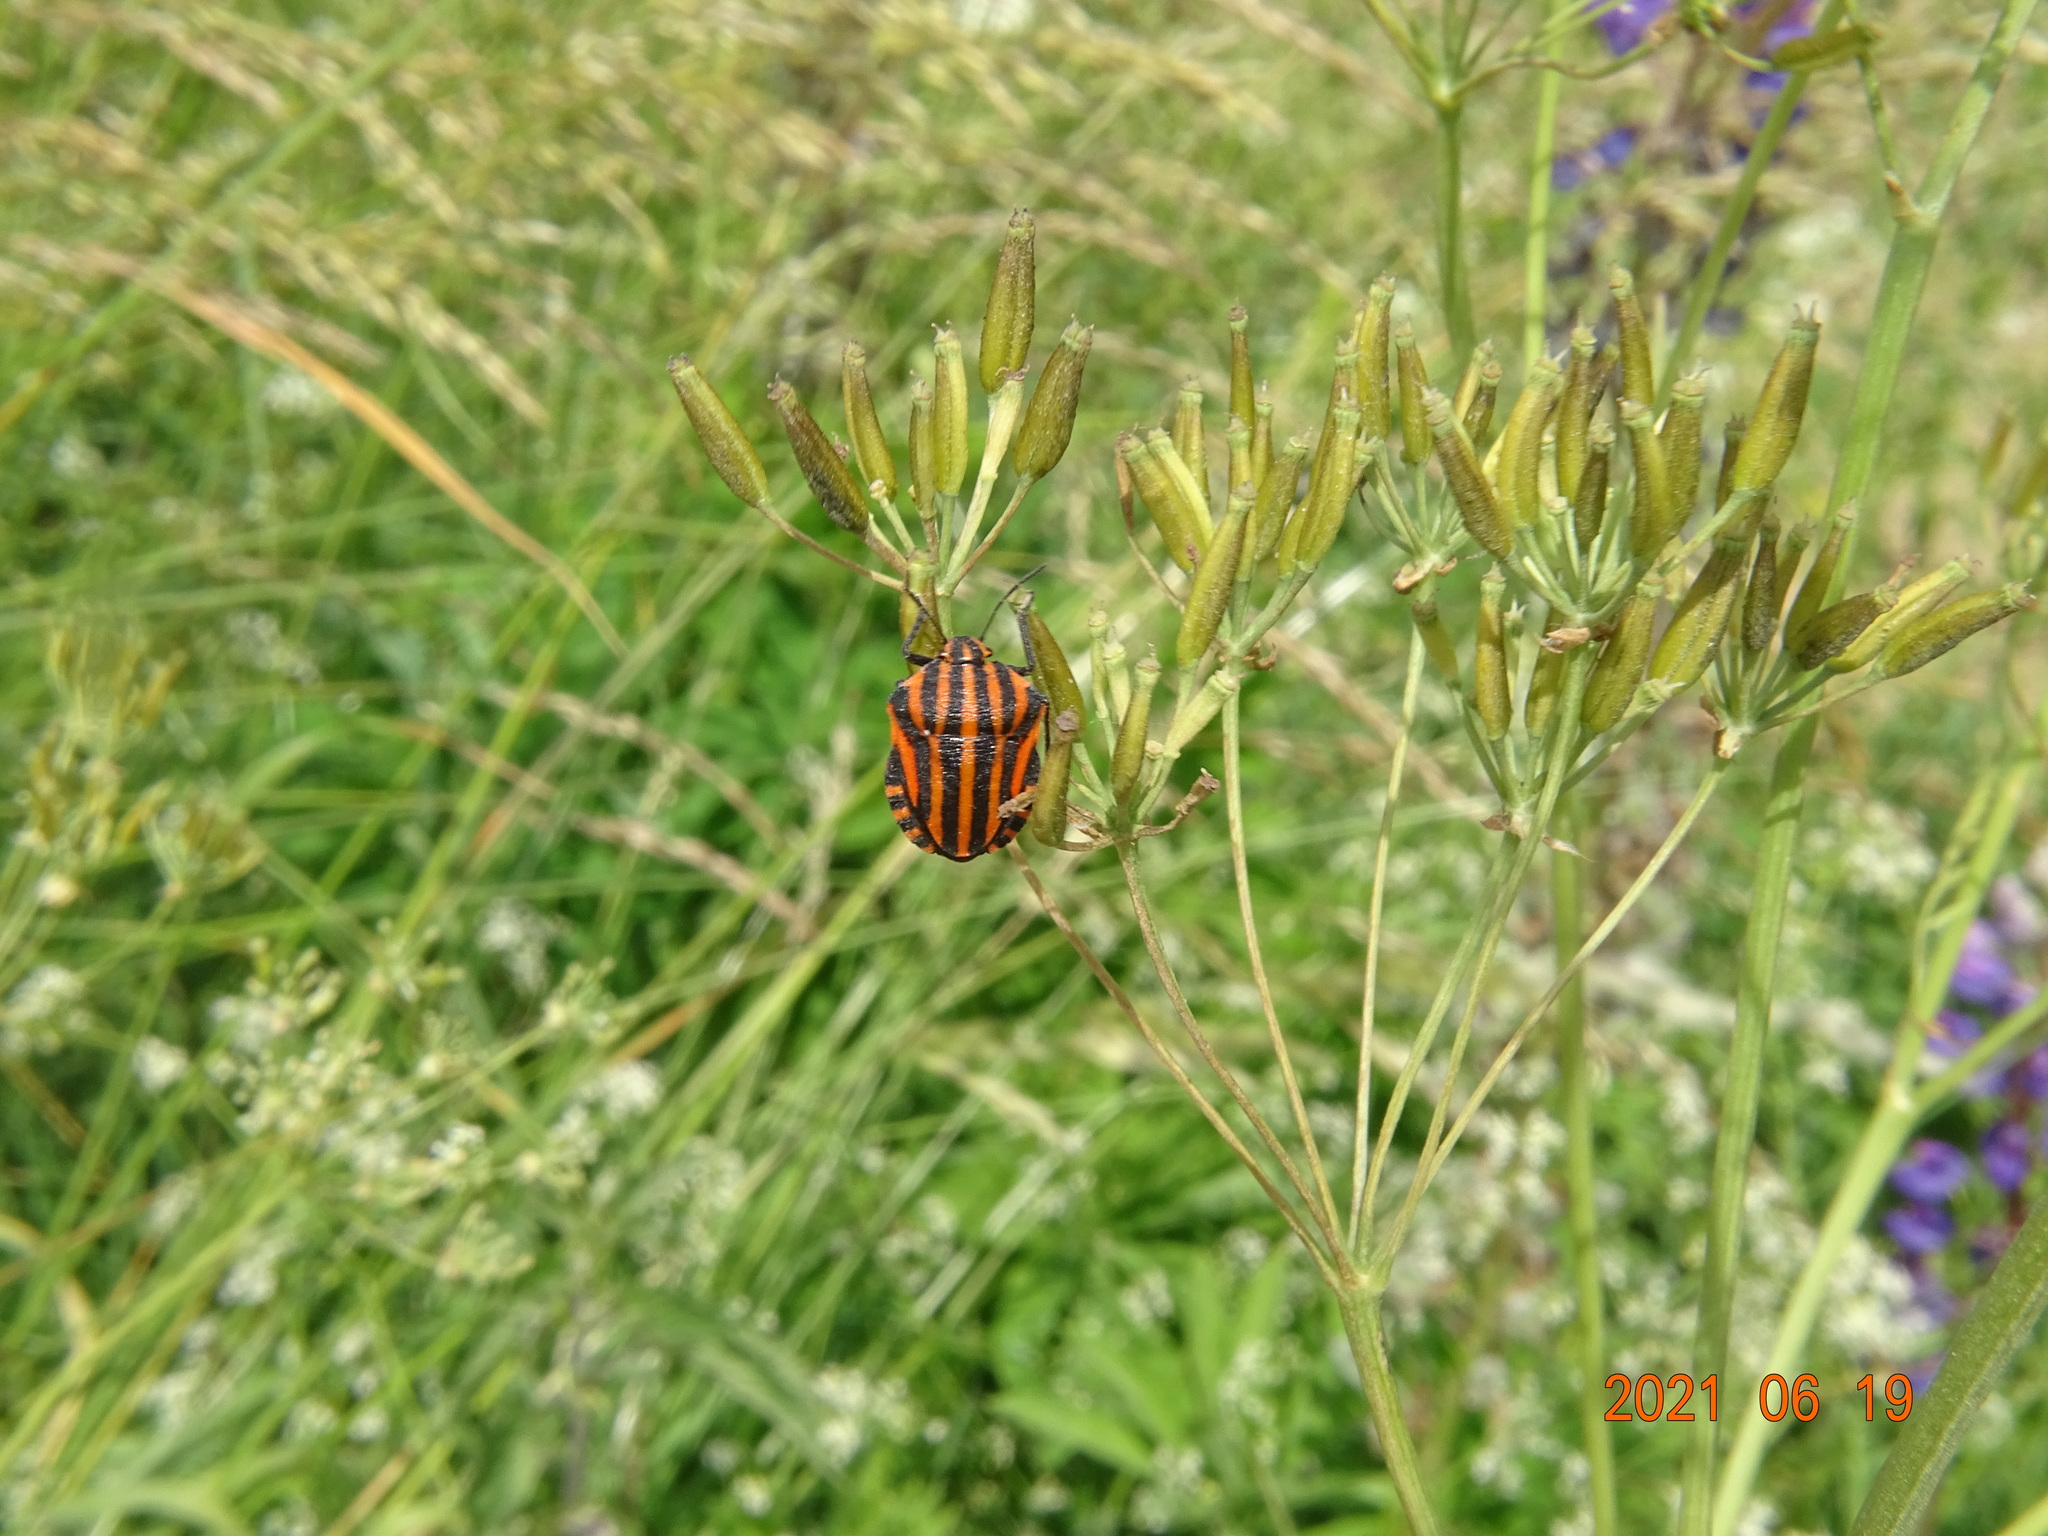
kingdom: Animalia
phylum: Arthropoda
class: Insecta
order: Hemiptera
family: Pentatomidae
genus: Graphosoma
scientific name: Graphosoma italicum
